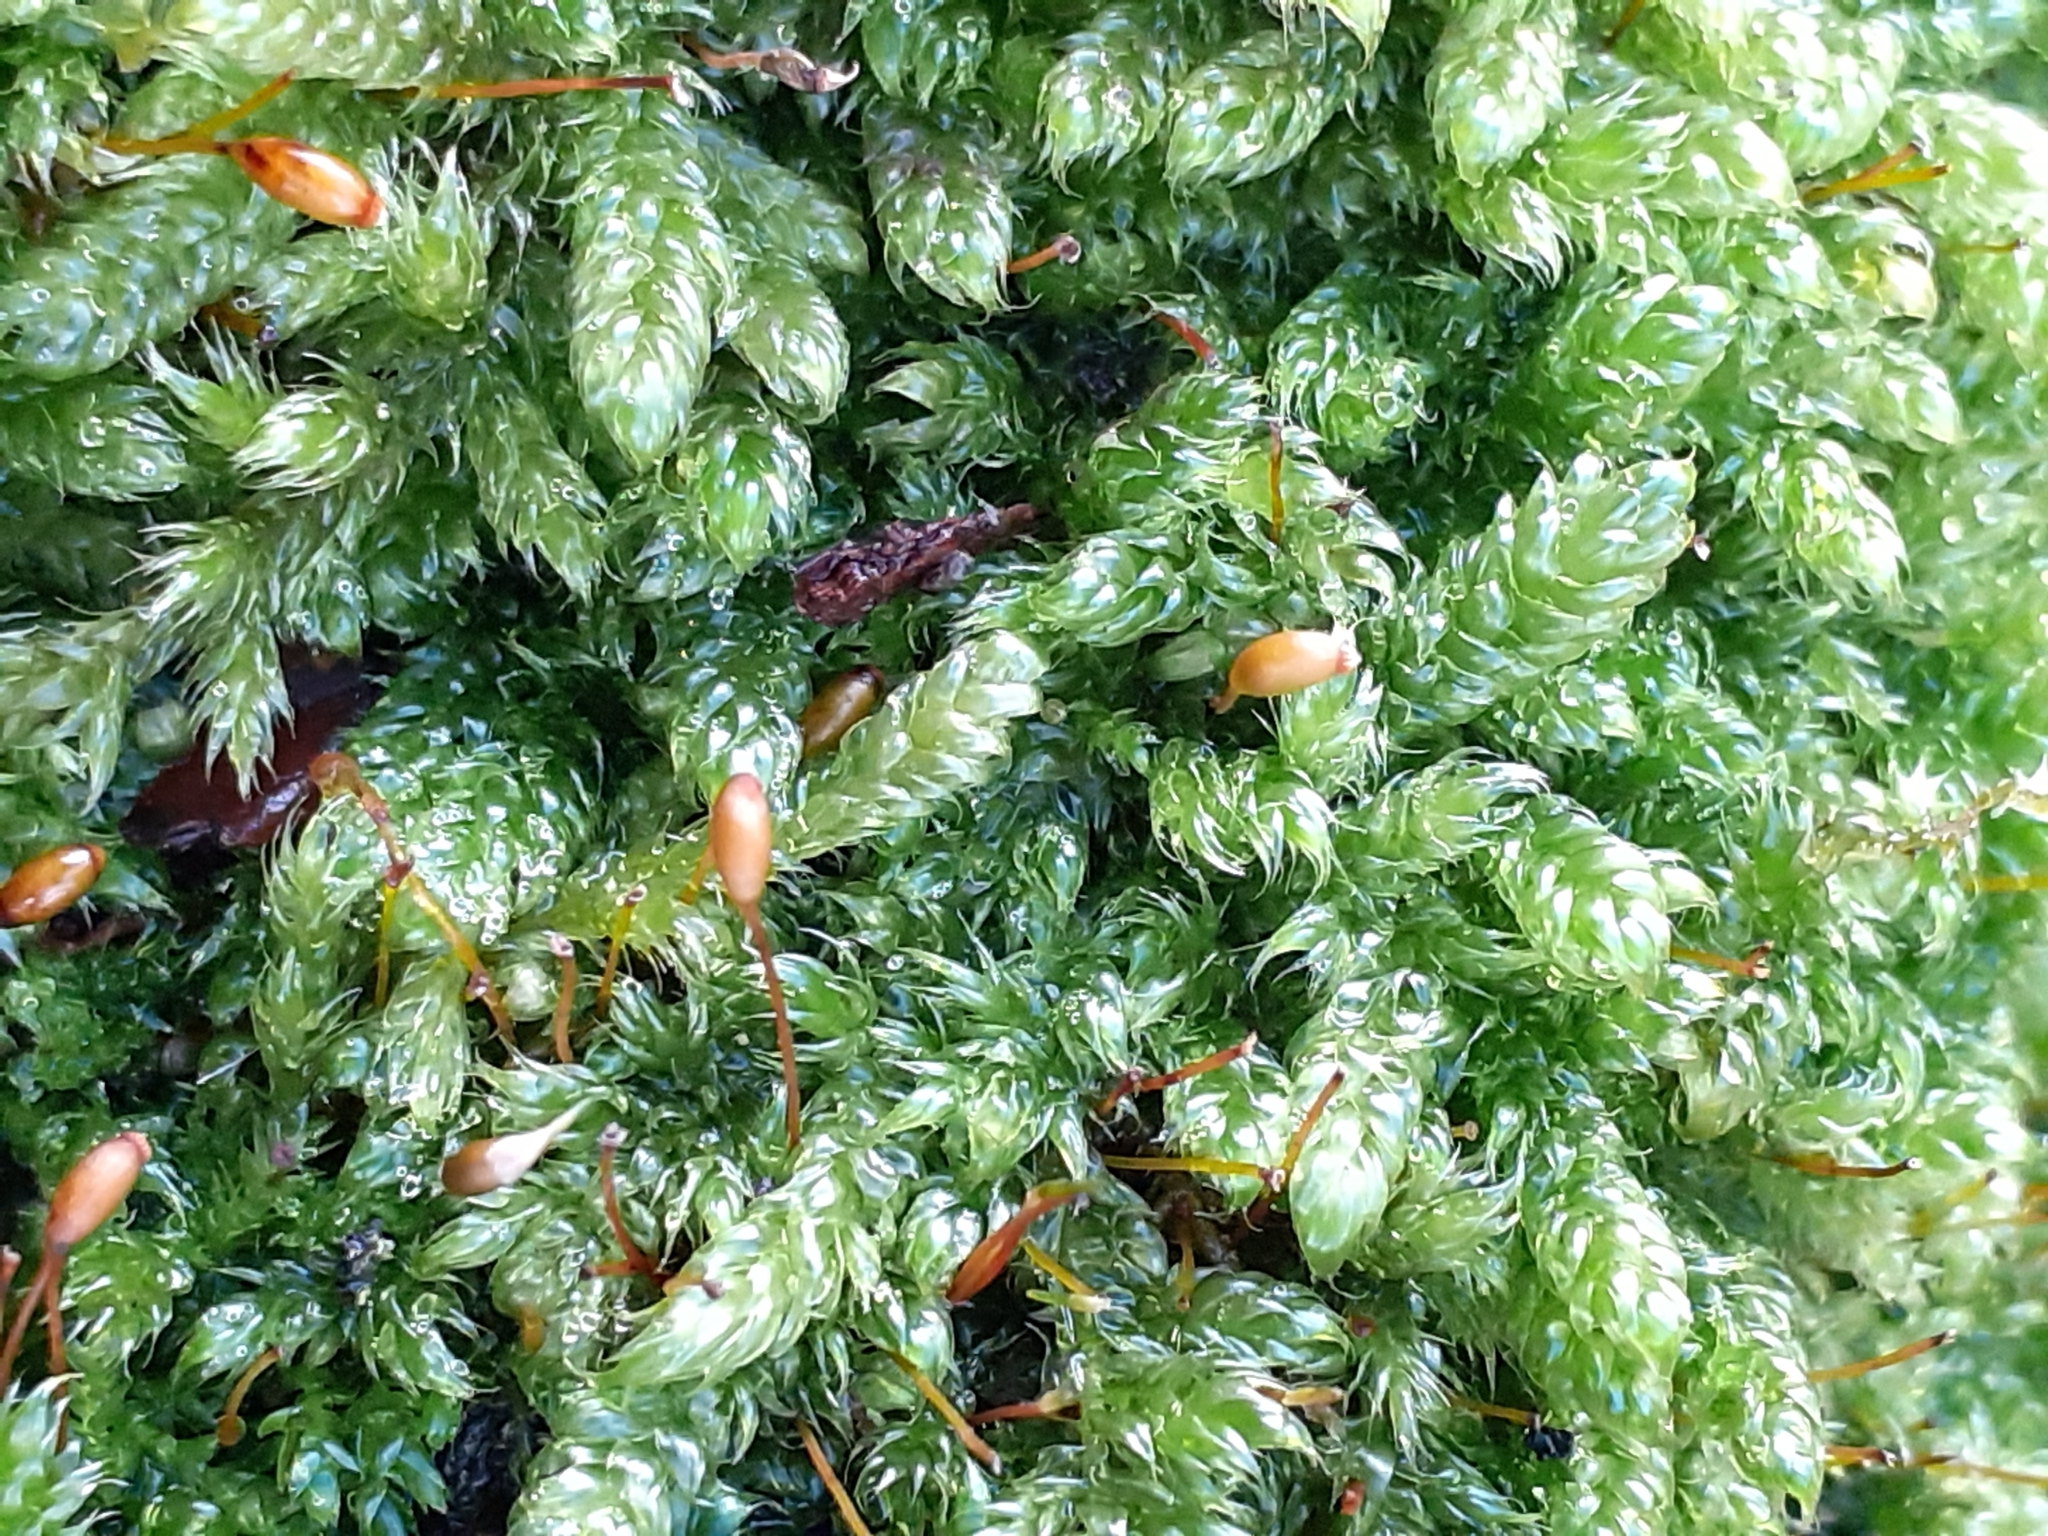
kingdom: Plantae
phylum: Bryophyta
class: Bryopsida
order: Hypnales
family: Hypnaceae
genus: Hypnum
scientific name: Hypnum cupressiforme
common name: Cypress-leaved plait-moss
